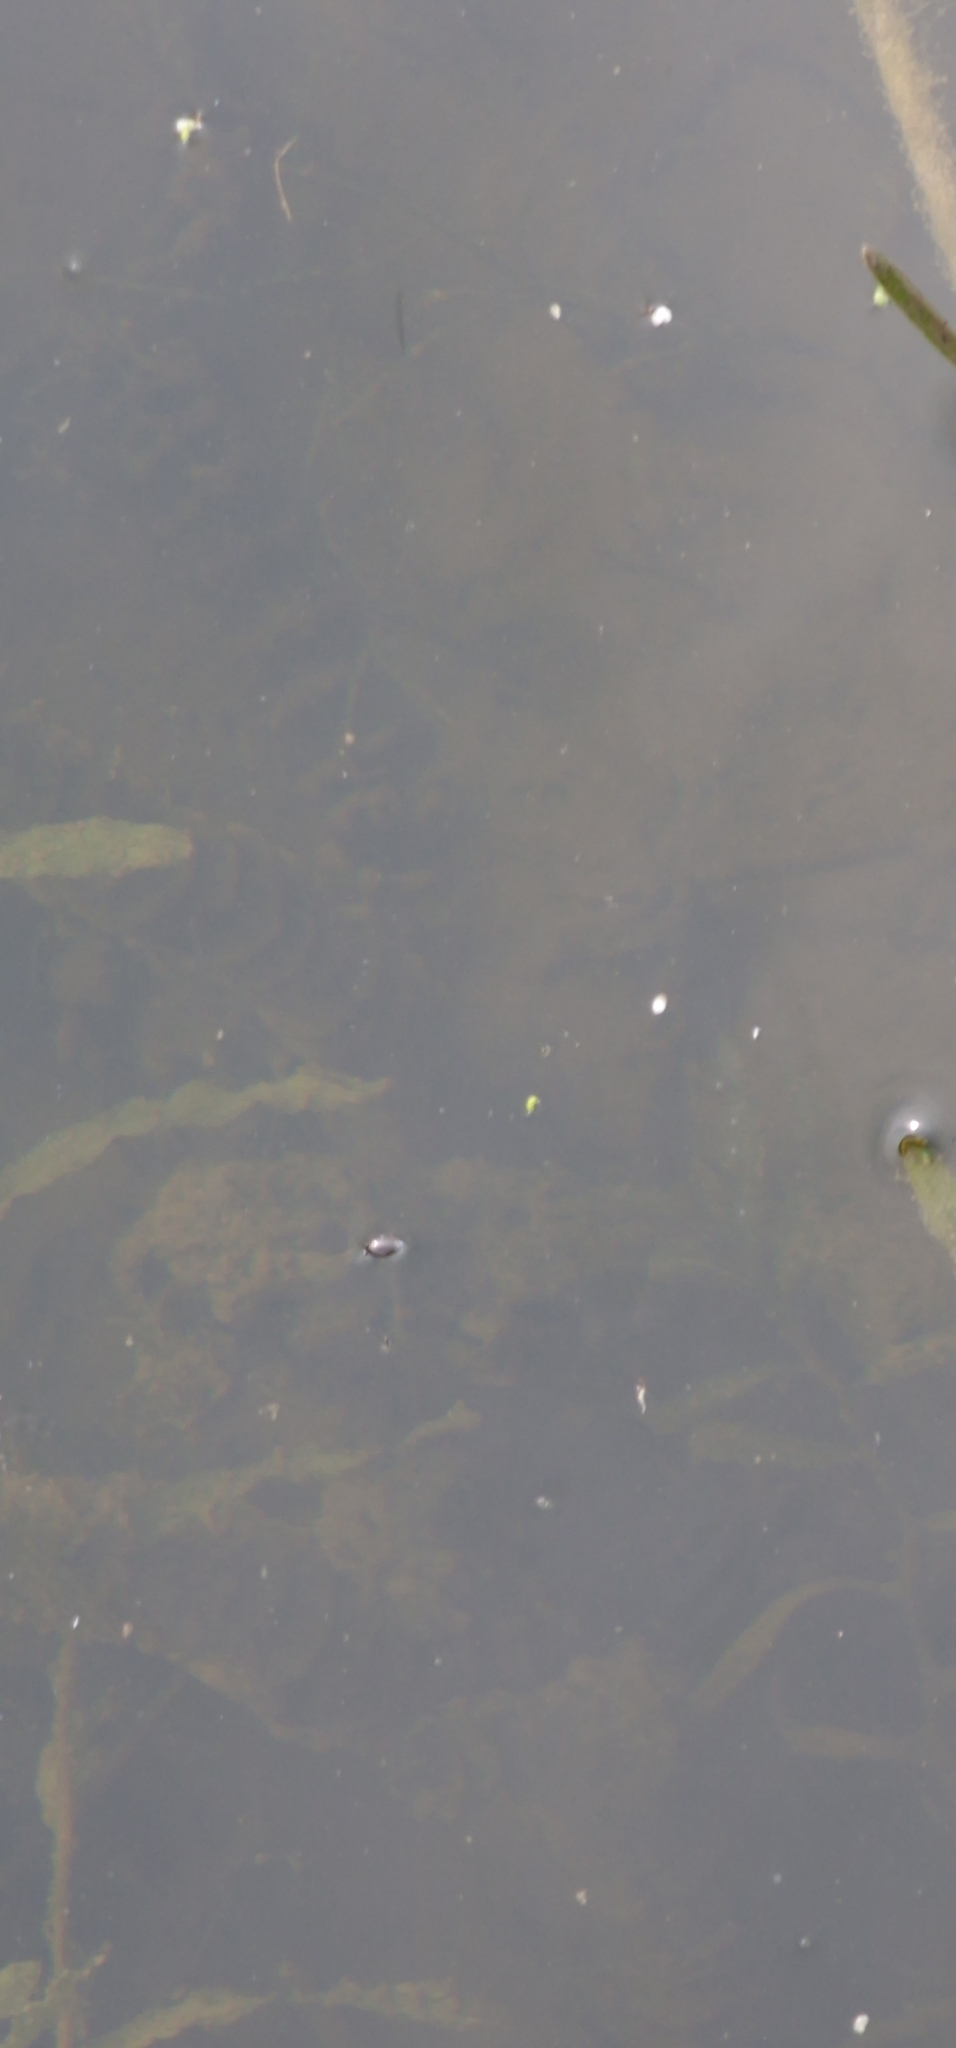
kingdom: Animalia
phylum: Arthropoda
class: Insecta
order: Coleoptera
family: Gyrinidae
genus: Gyrinus
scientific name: Gyrinus
